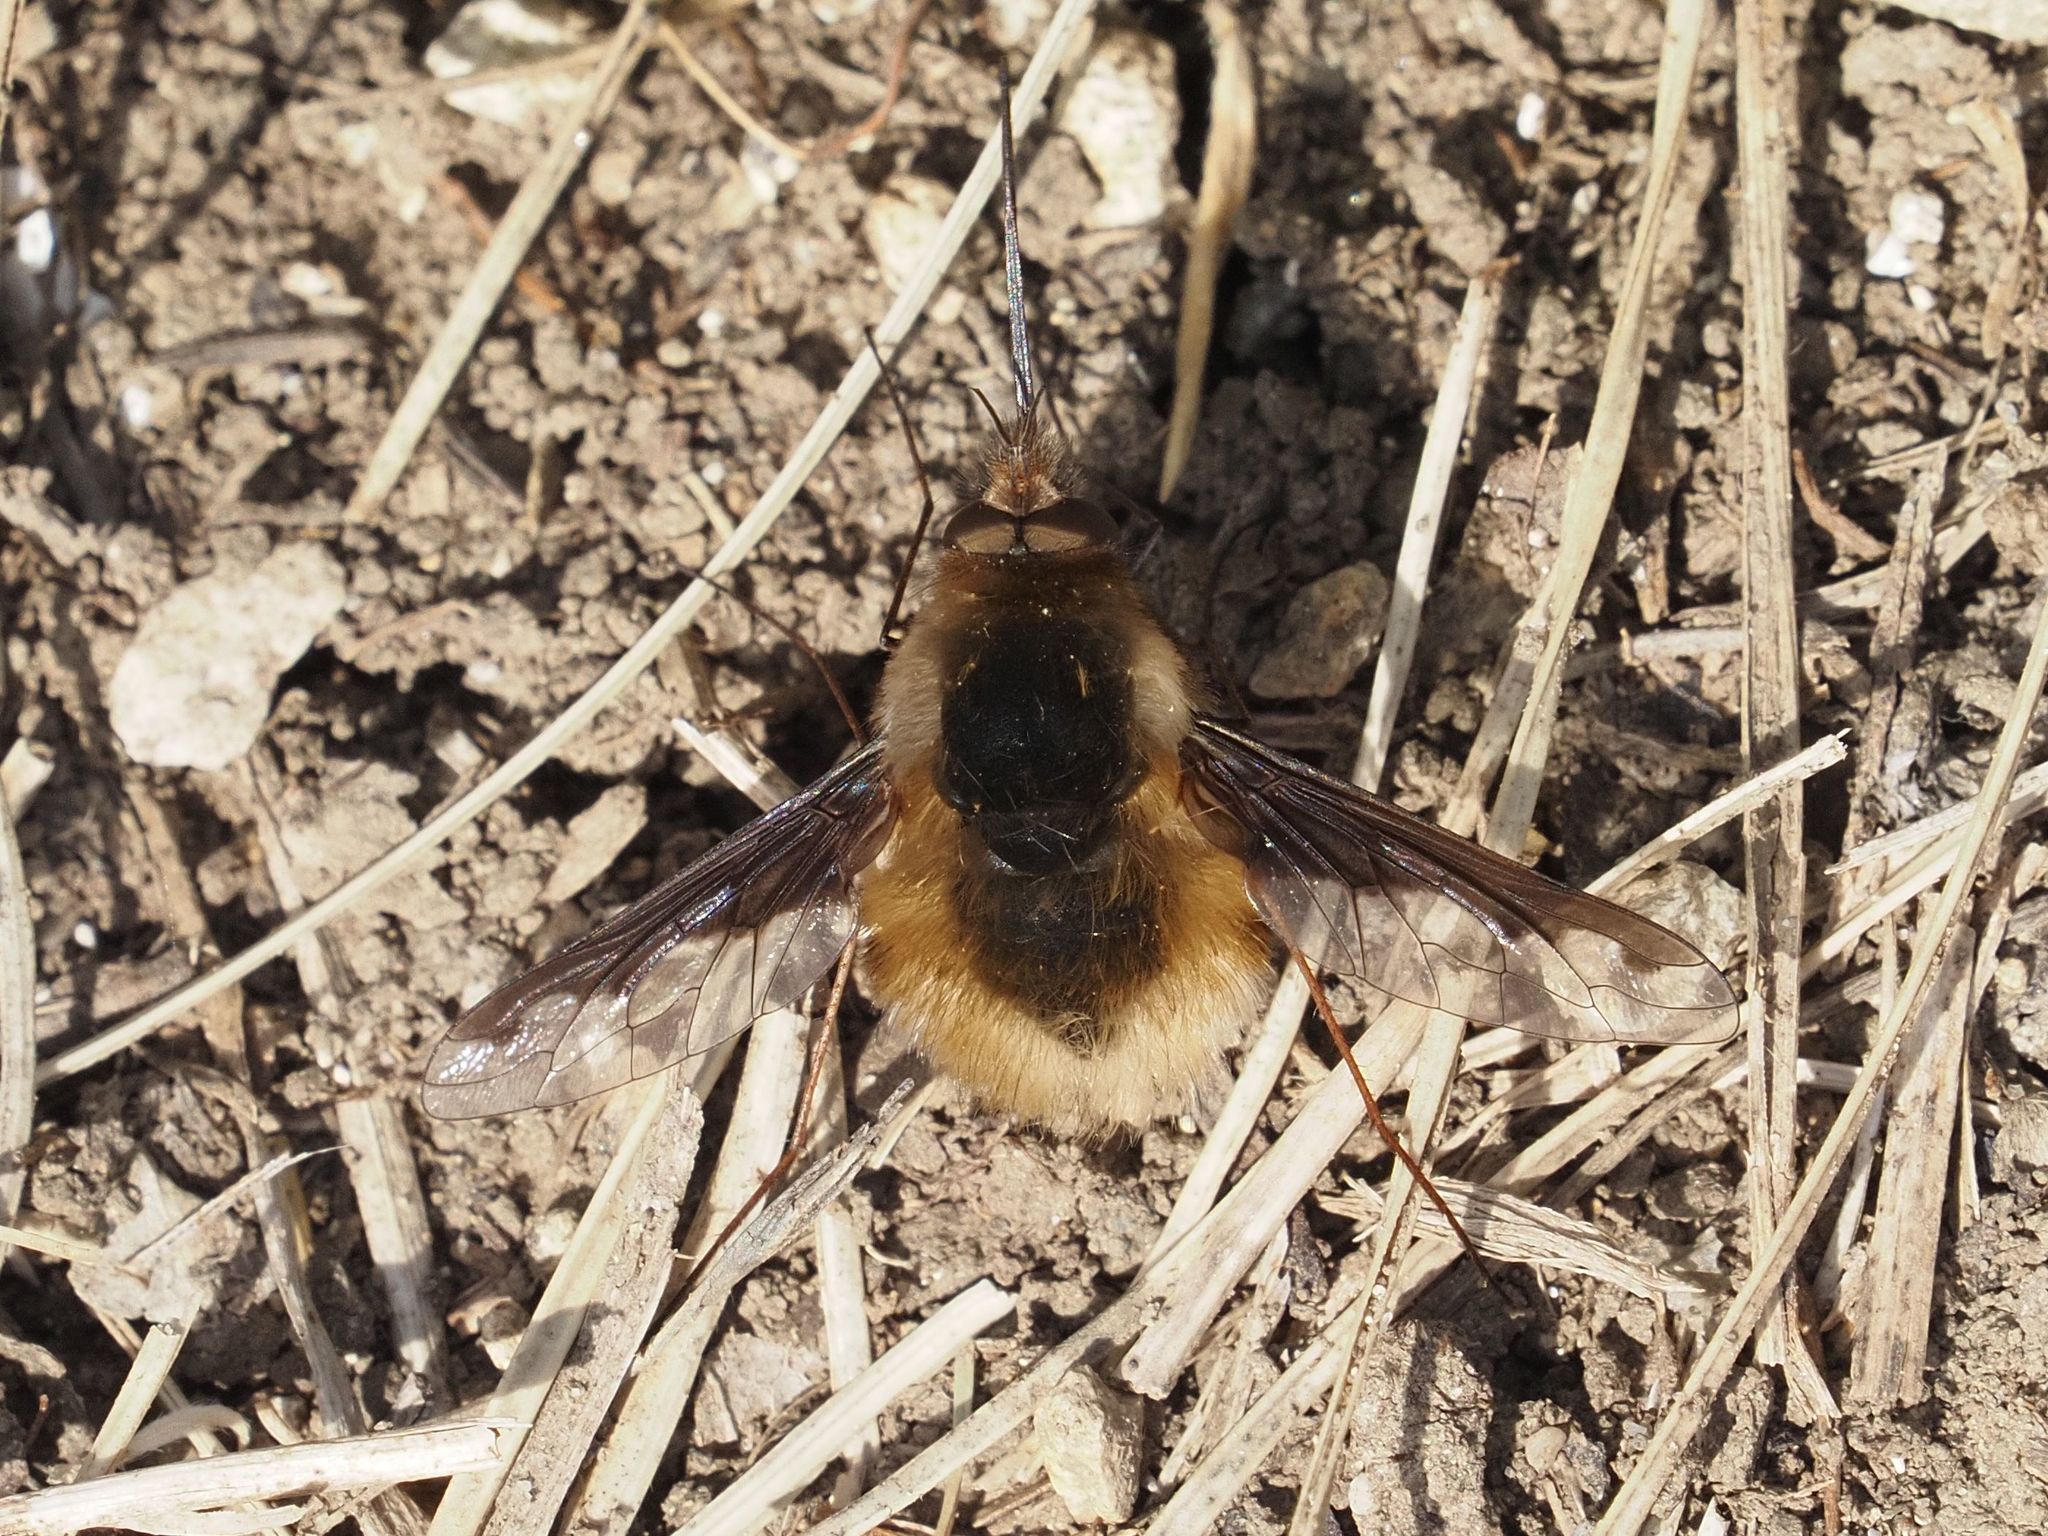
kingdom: Animalia
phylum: Arthropoda
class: Insecta
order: Diptera
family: Bombyliidae
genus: Bombylius
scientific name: Bombylius major
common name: Bee fly
